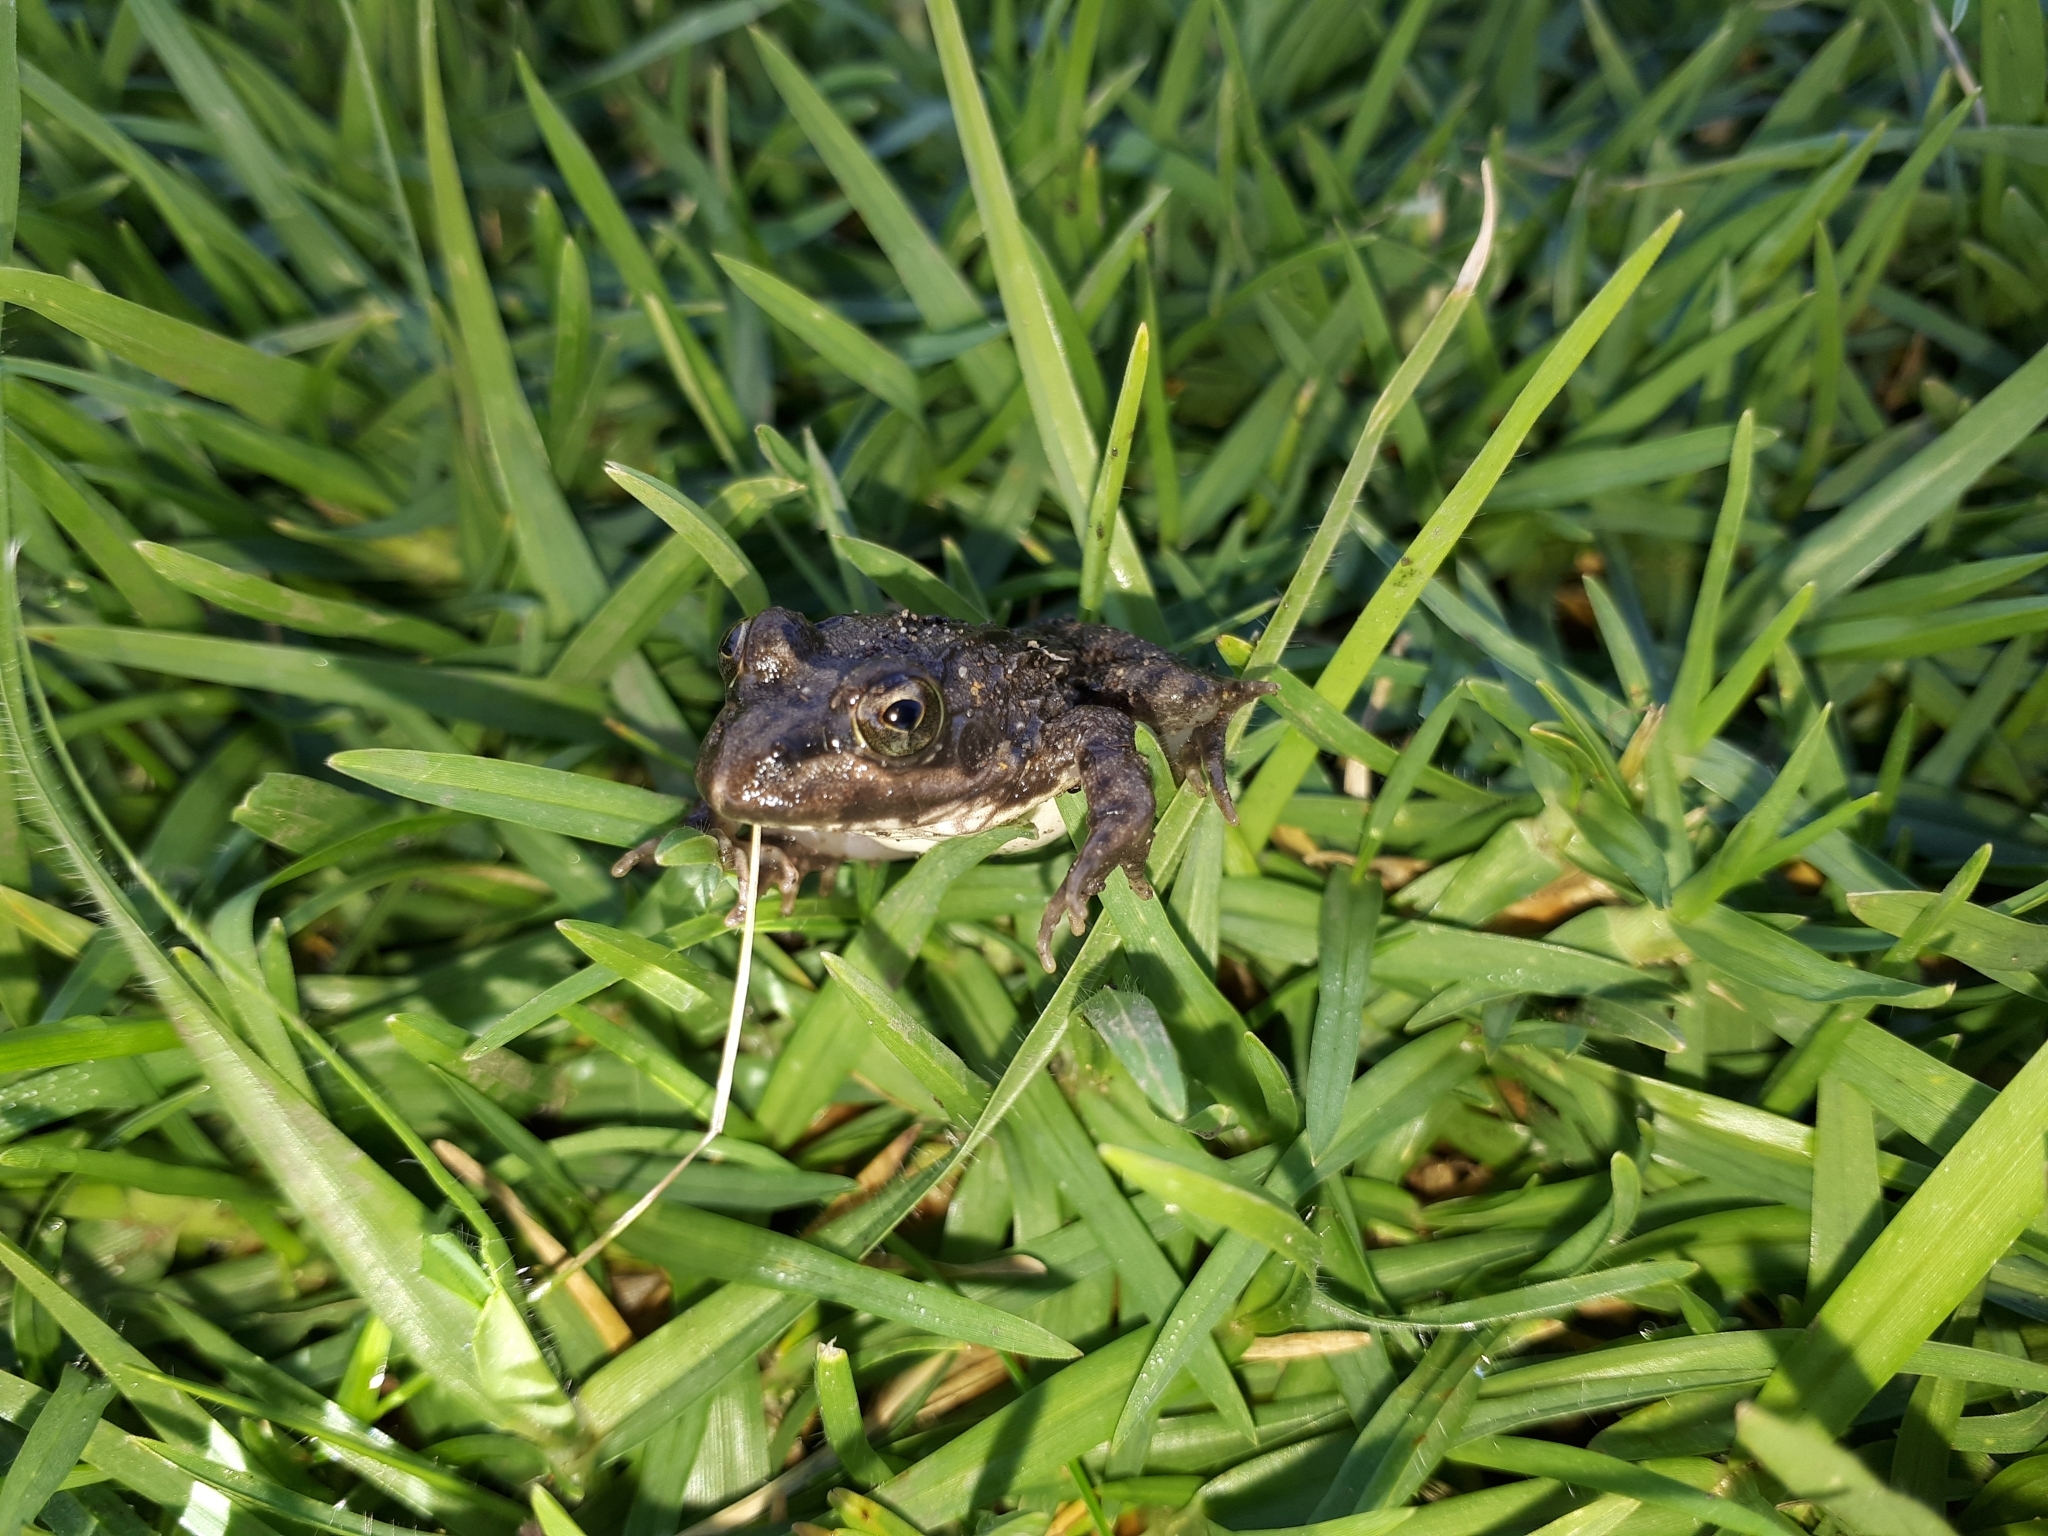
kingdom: Animalia
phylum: Chordata
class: Amphibia
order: Anura
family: Pyxicephalidae
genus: Amietia
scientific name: Amietia fuscigula
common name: Cape rana
